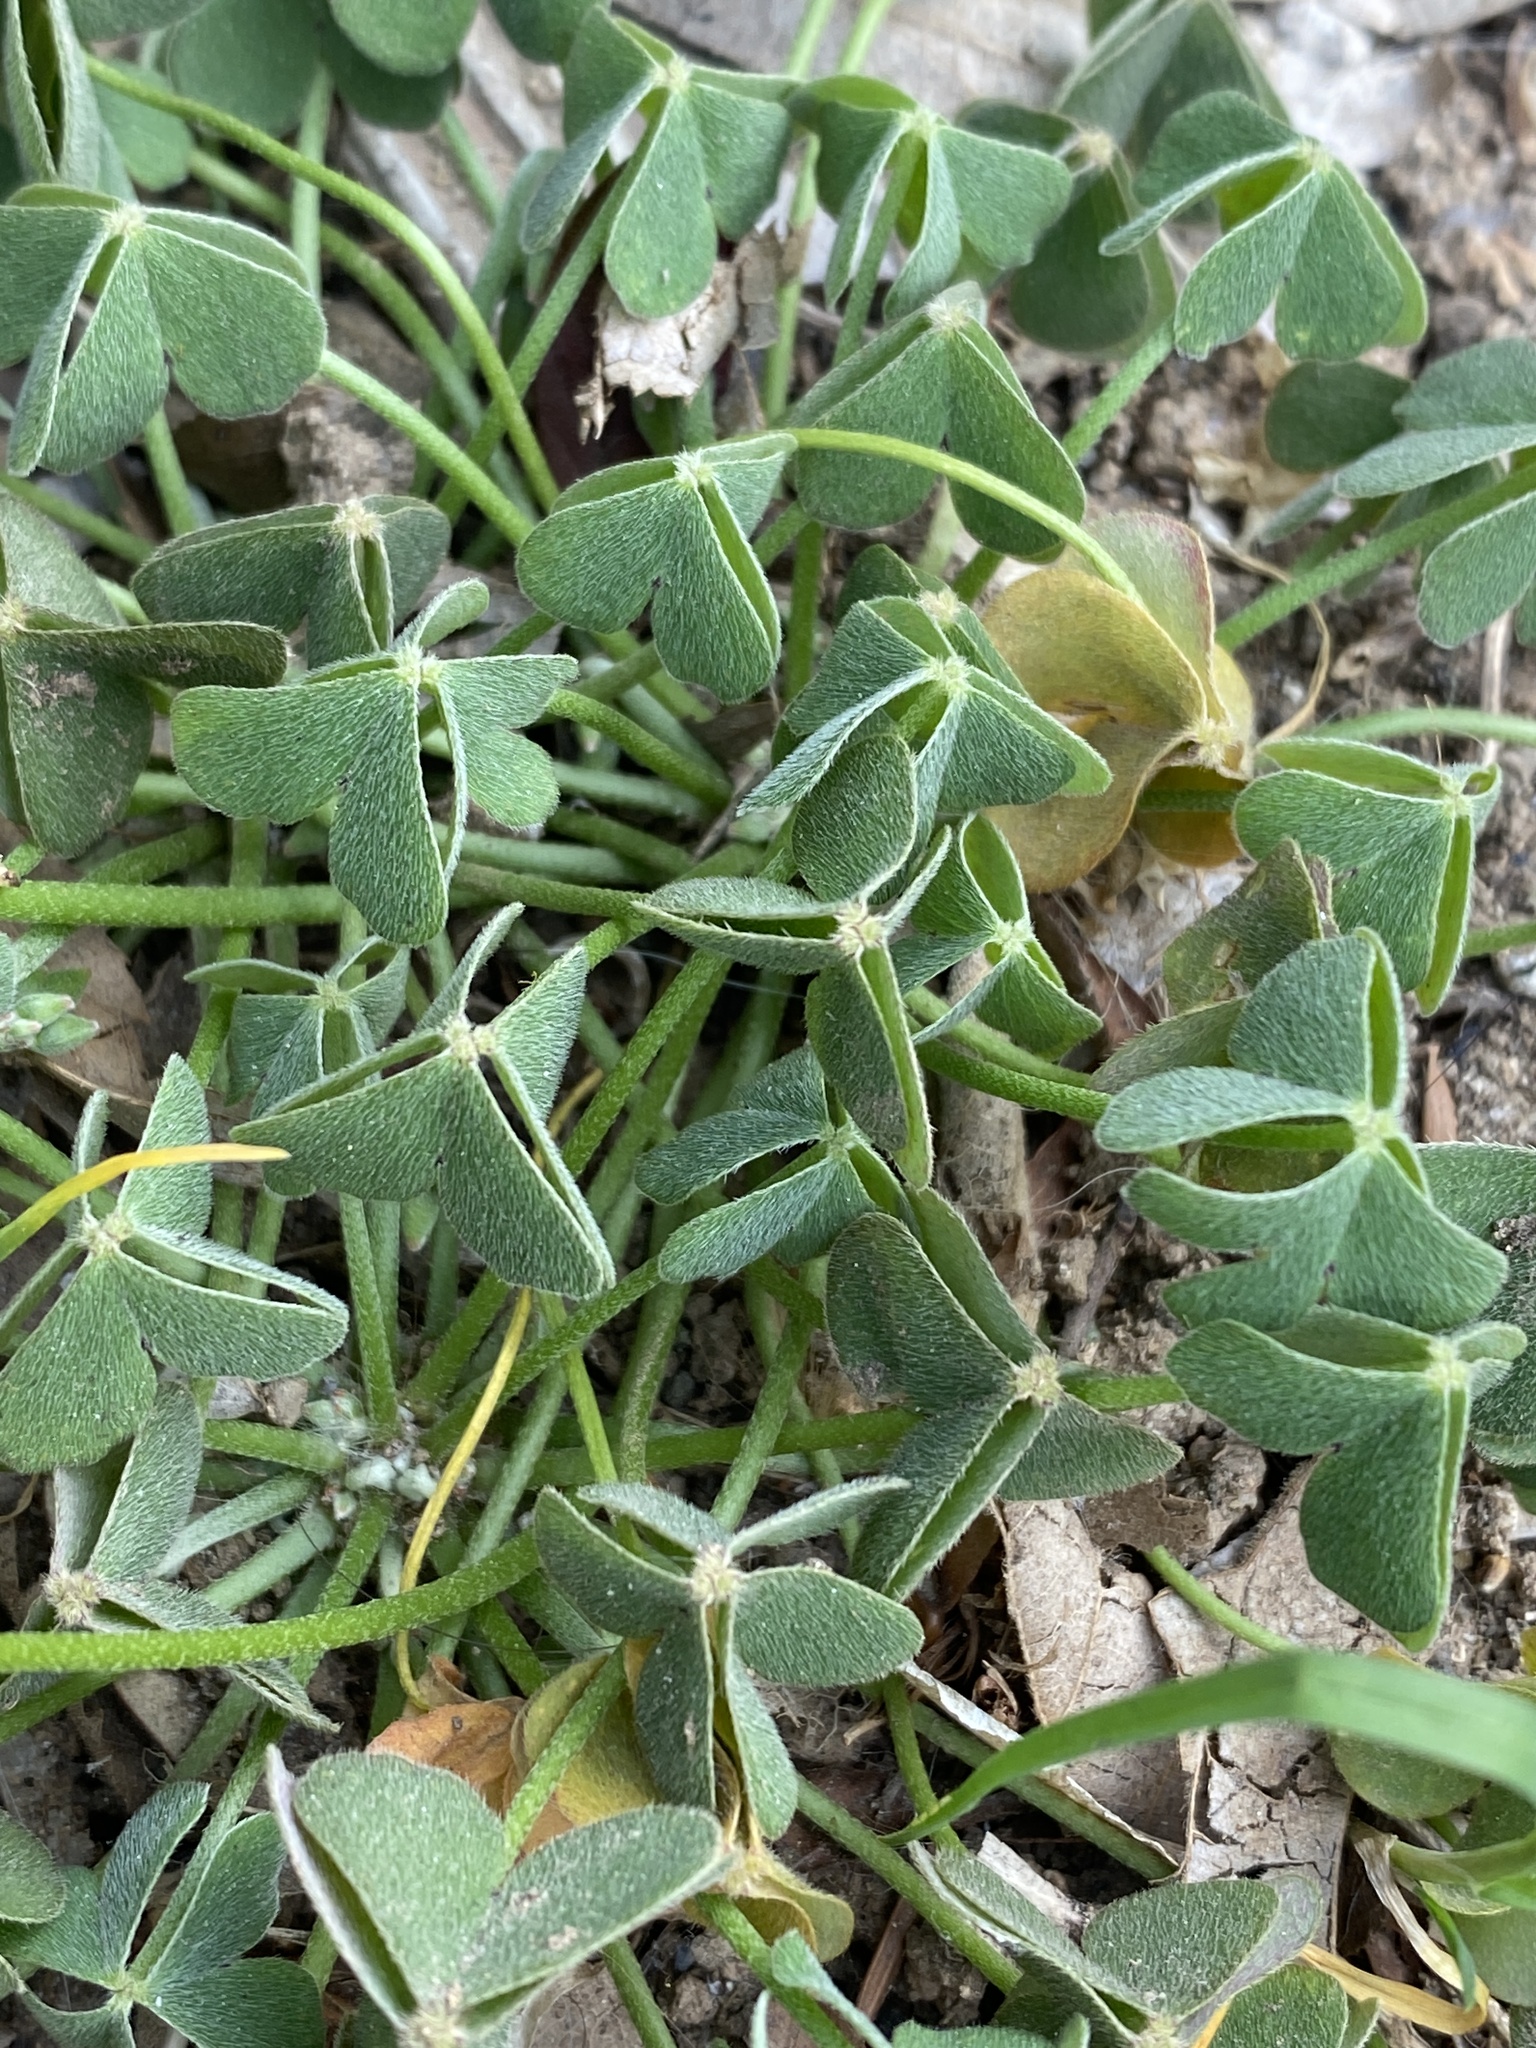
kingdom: Plantae
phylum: Tracheophyta
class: Magnoliopsida
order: Oxalidales
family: Oxalidaceae
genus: Oxalis
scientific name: Oxalis articulata
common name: Pink-sorrel
